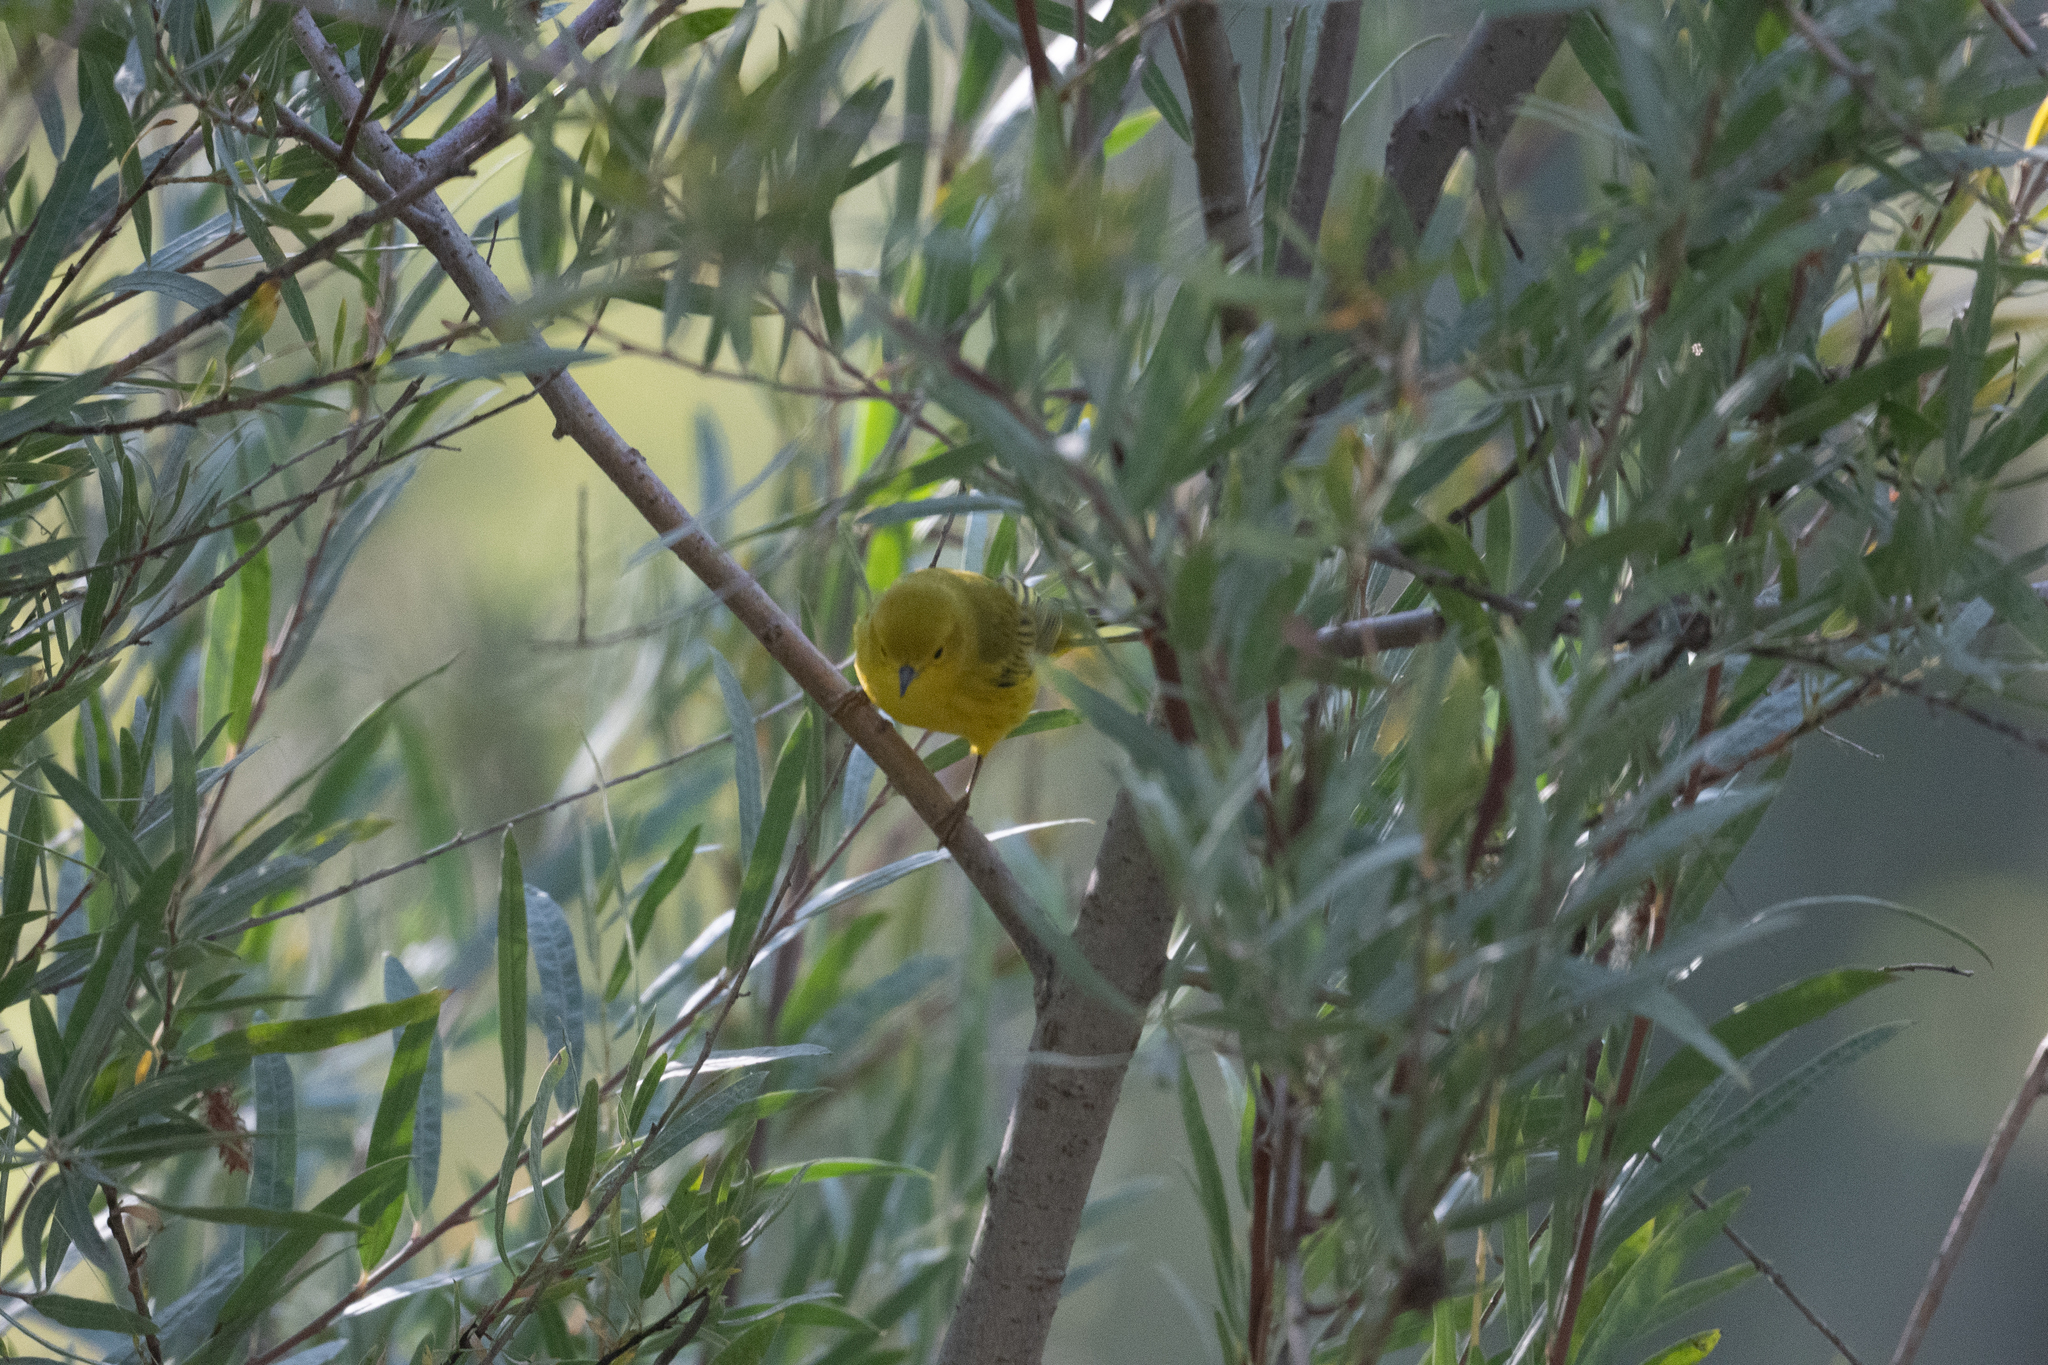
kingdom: Animalia
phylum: Chordata
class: Aves
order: Passeriformes
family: Parulidae
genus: Setophaga
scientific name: Setophaga petechia
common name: Yellow warbler
